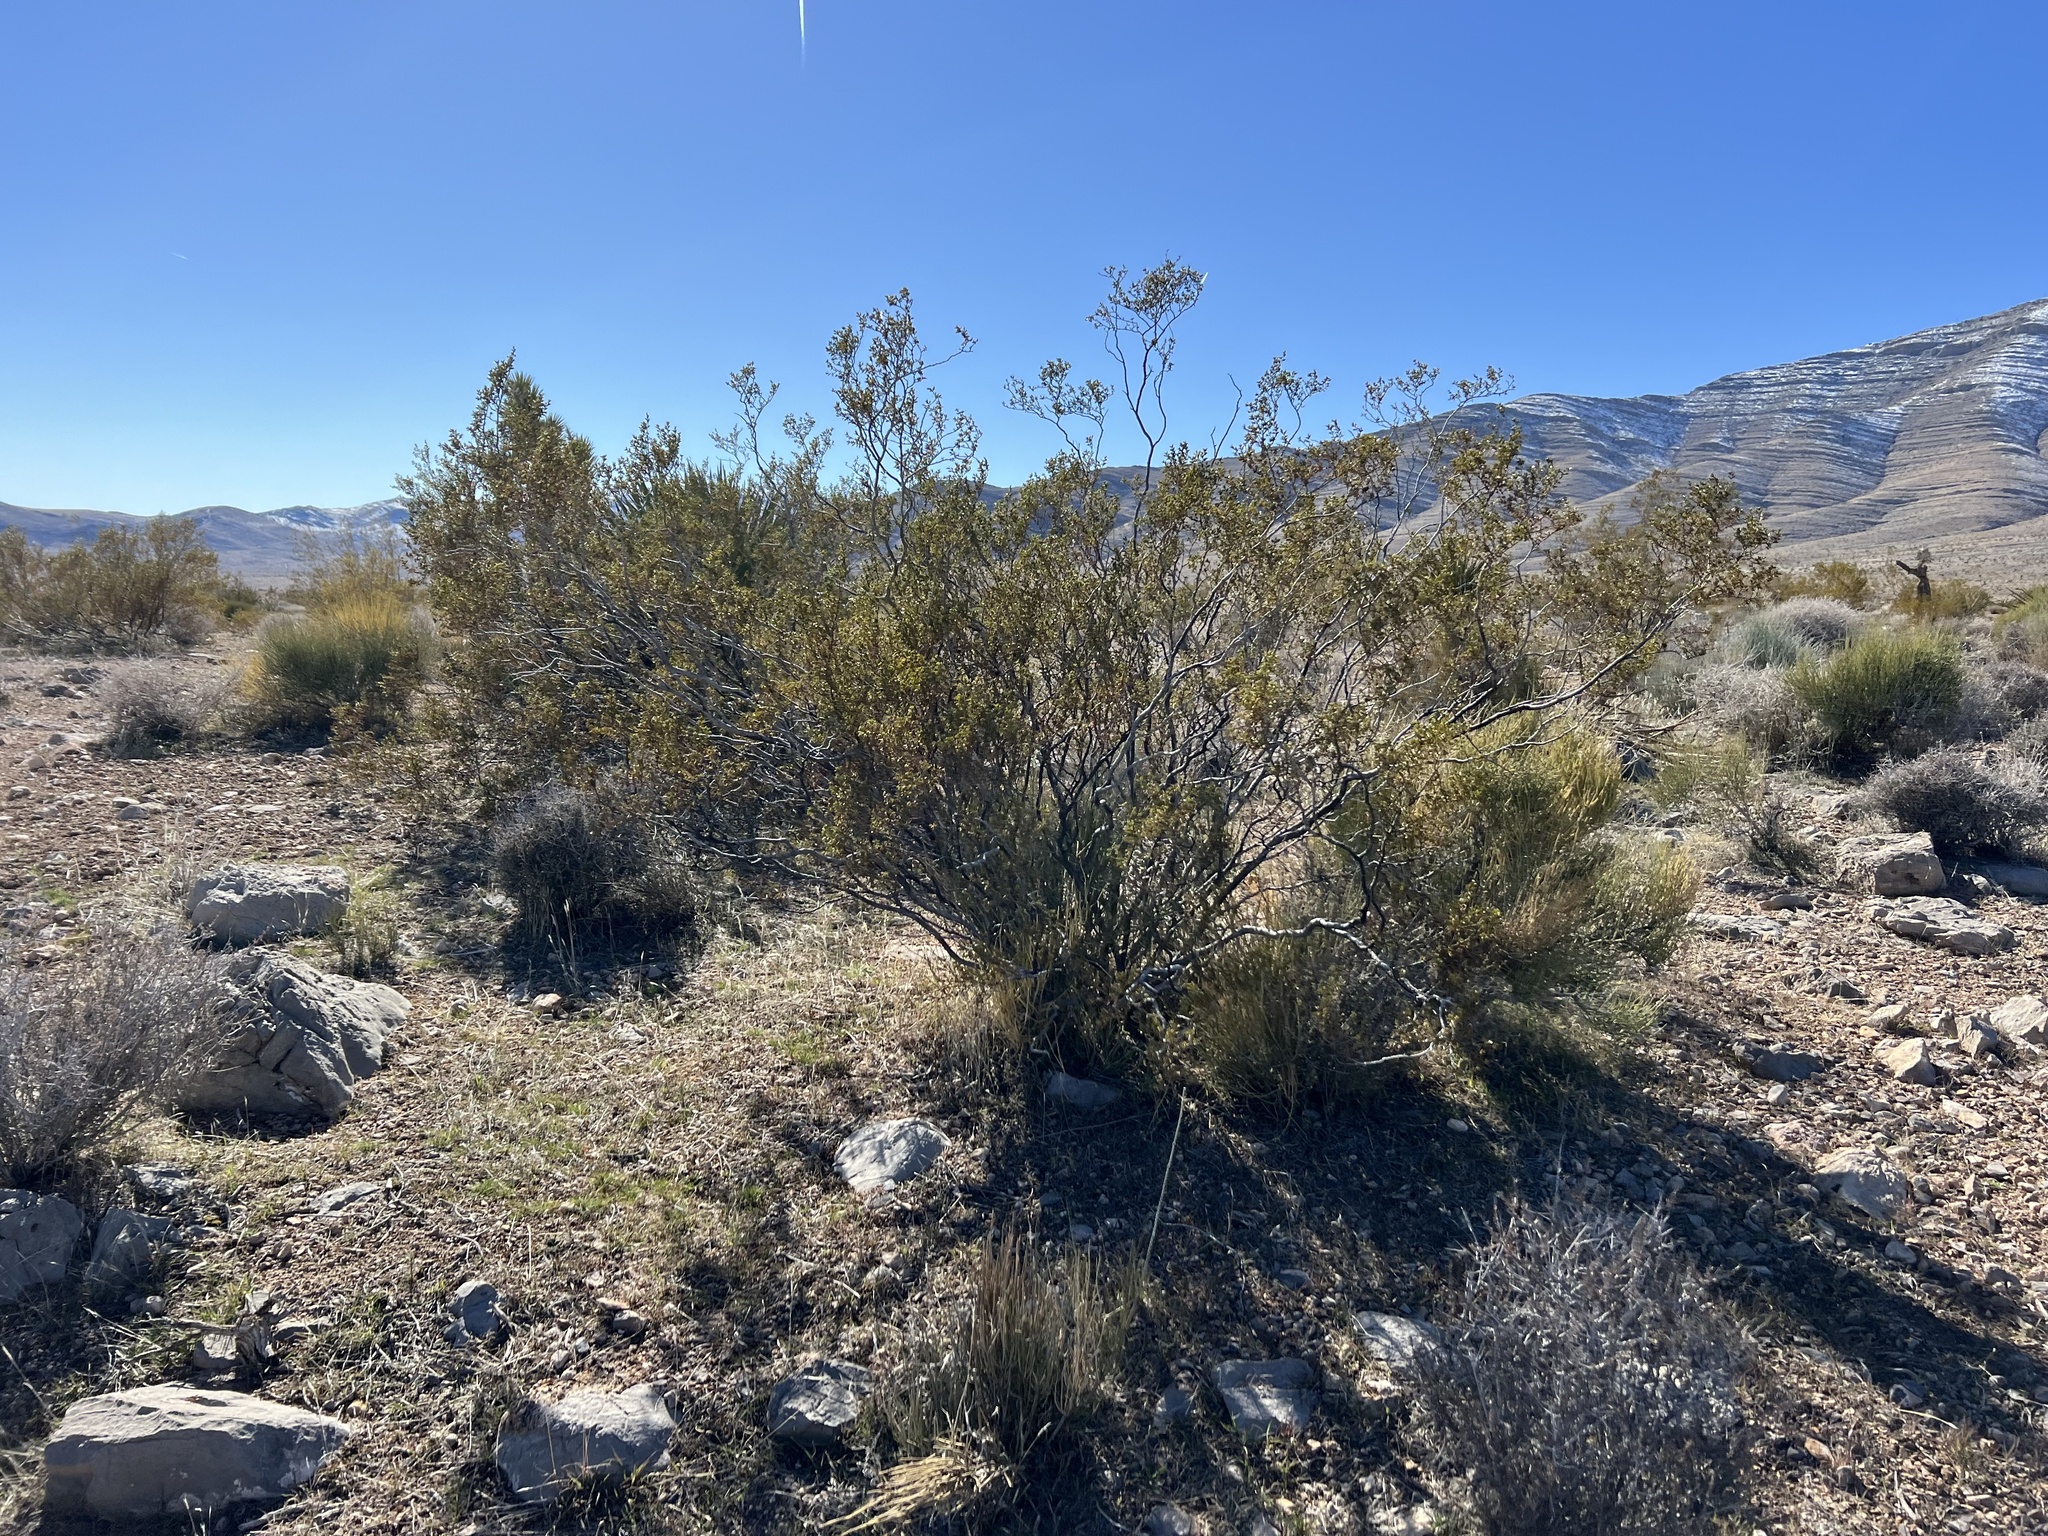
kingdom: Plantae
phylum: Tracheophyta
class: Magnoliopsida
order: Zygophyllales
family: Zygophyllaceae
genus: Larrea
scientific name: Larrea tridentata
